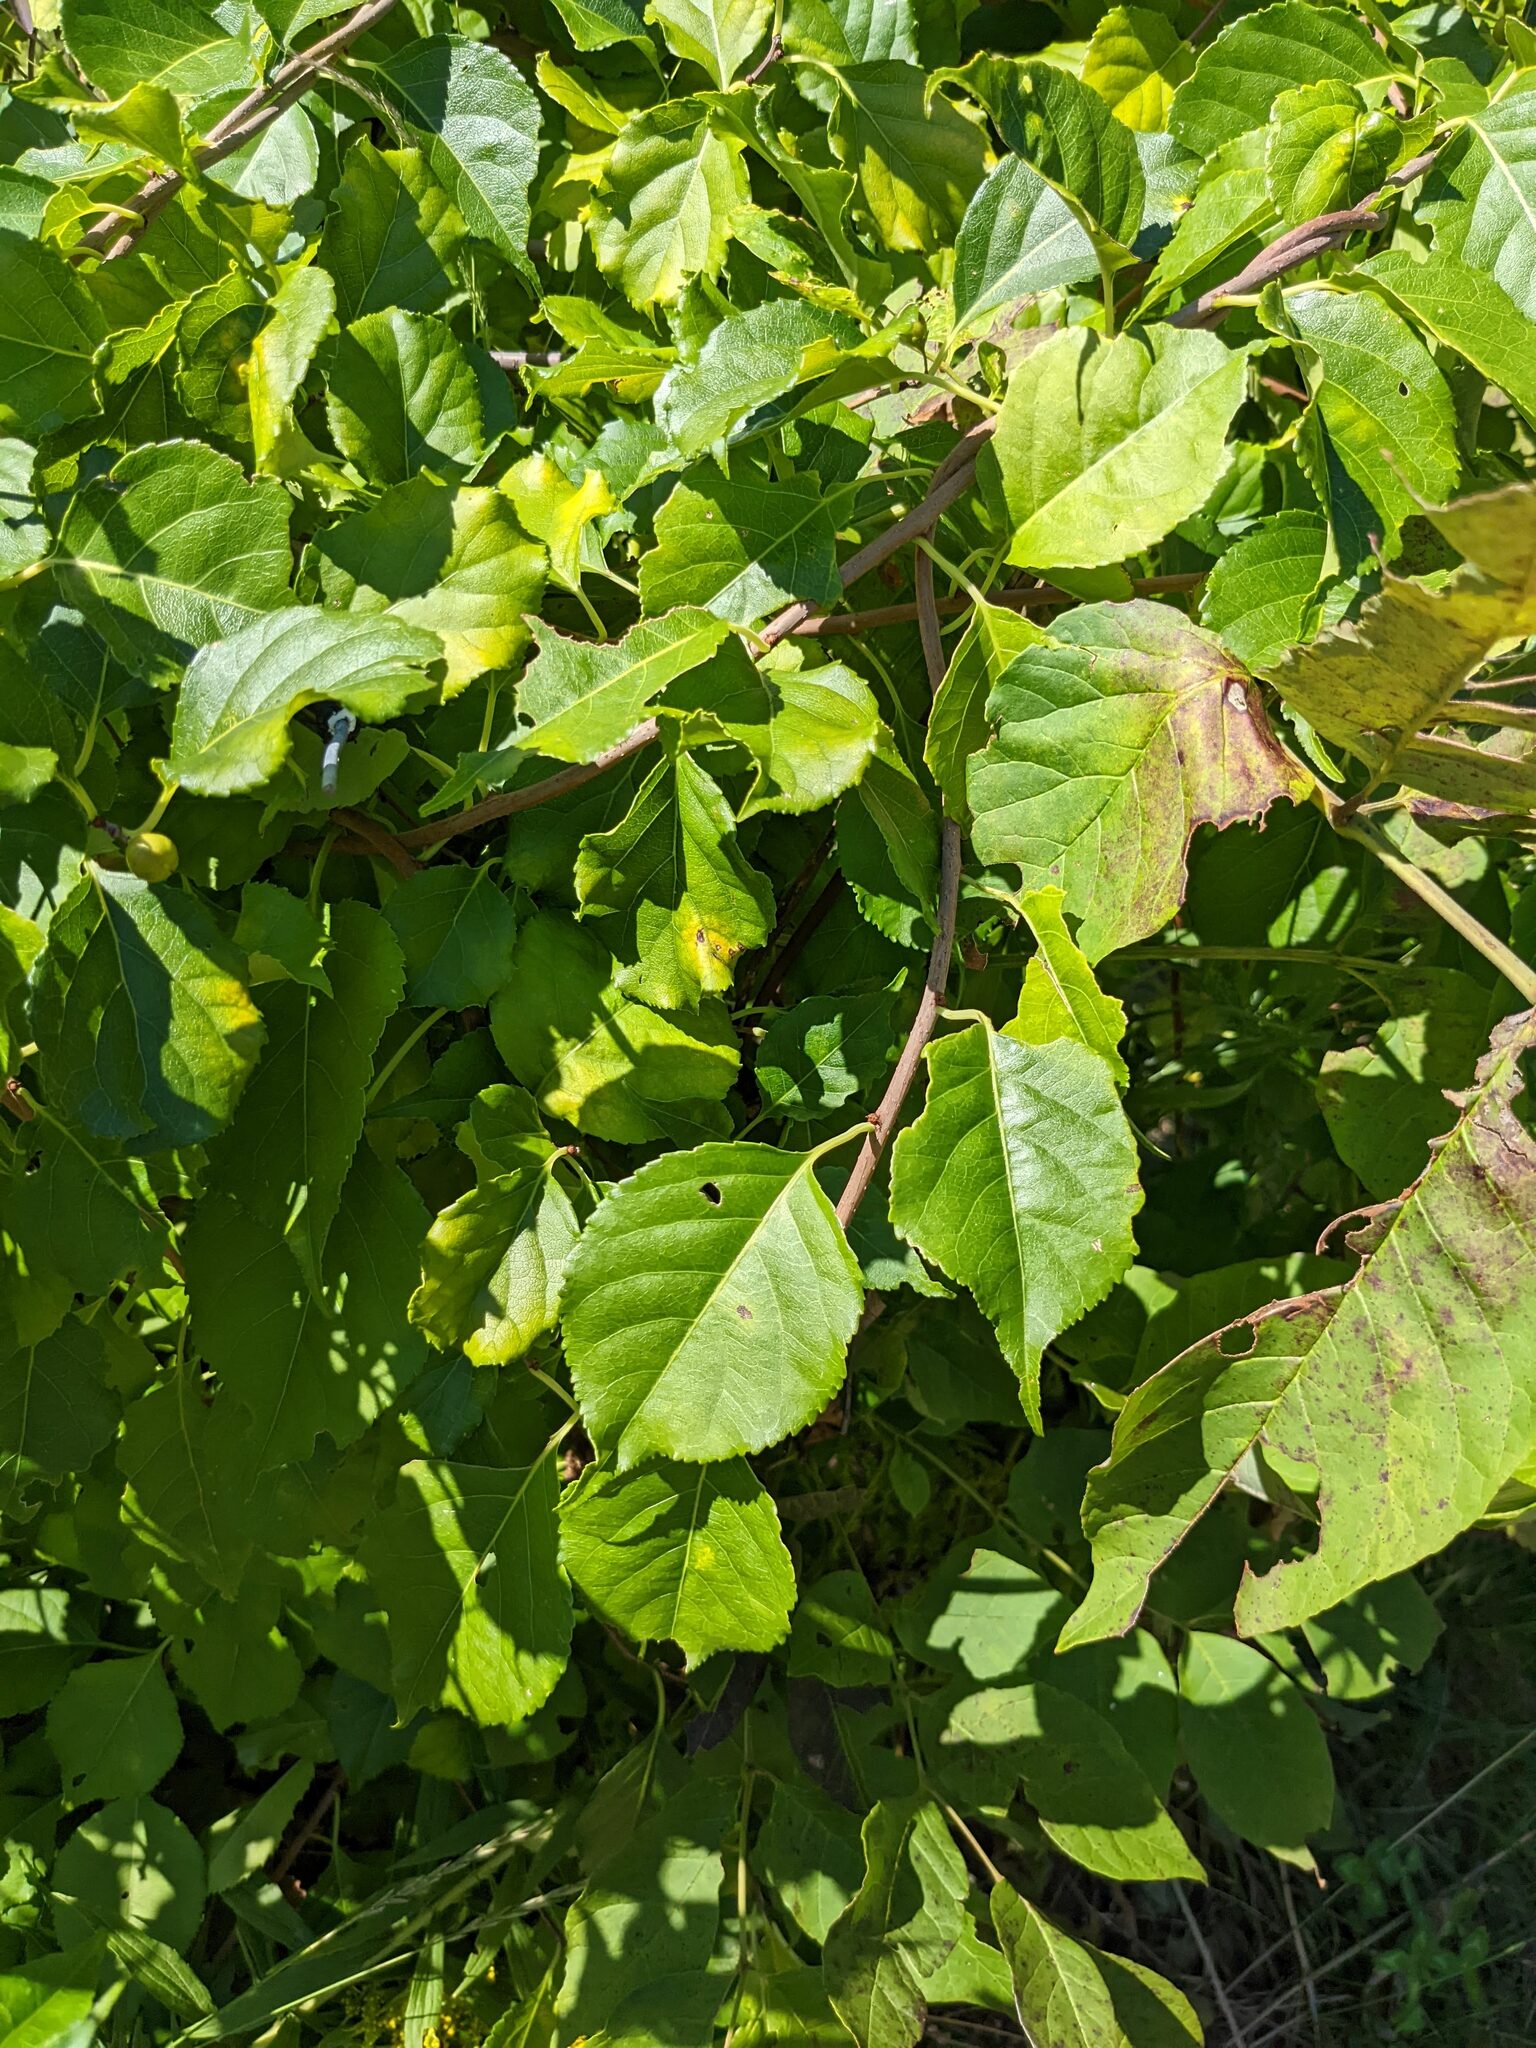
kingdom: Plantae
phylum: Tracheophyta
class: Magnoliopsida
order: Celastrales
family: Celastraceae
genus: Celastrus
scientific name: Celastrus orbiculatus
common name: Oriental bittersweet
